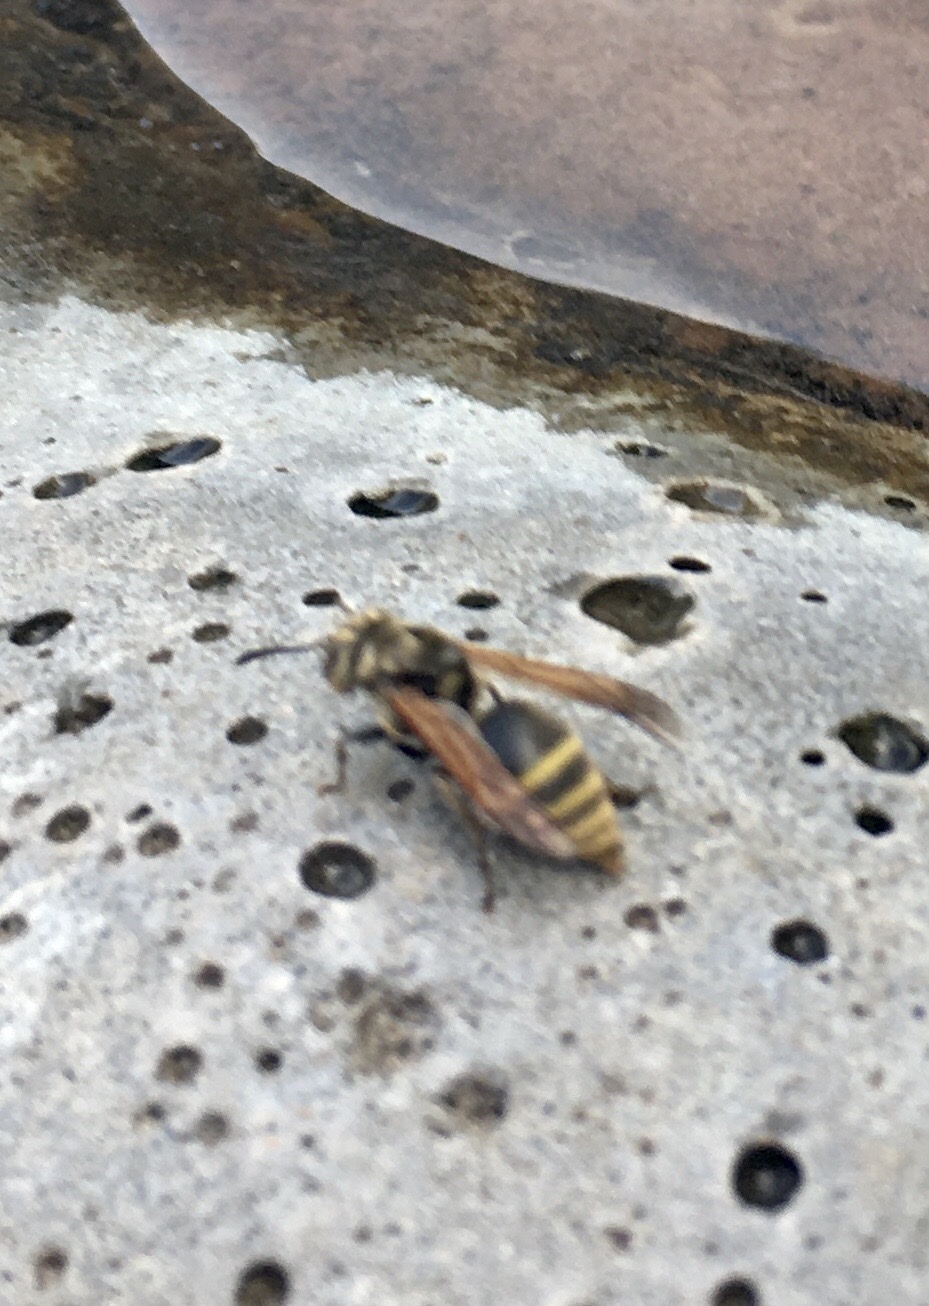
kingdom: Animalia
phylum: Arthropoda
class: Insecta
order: Hymenoptera
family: Vespidae
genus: Brachygastra
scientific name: Brachygastra mellifica
